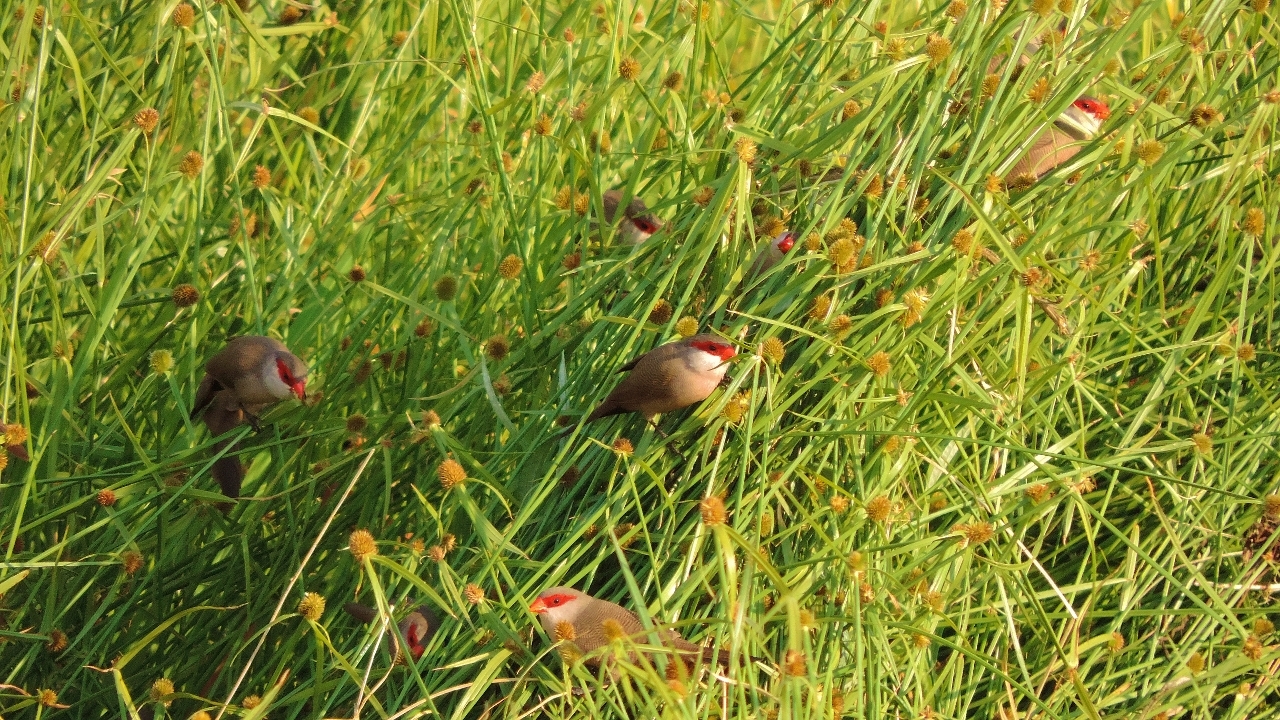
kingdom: Animalia
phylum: Chordata
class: Aves
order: Passeriformes
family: Estrildidae
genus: Estrilda
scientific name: Estrilda astrild
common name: Common waxbill
